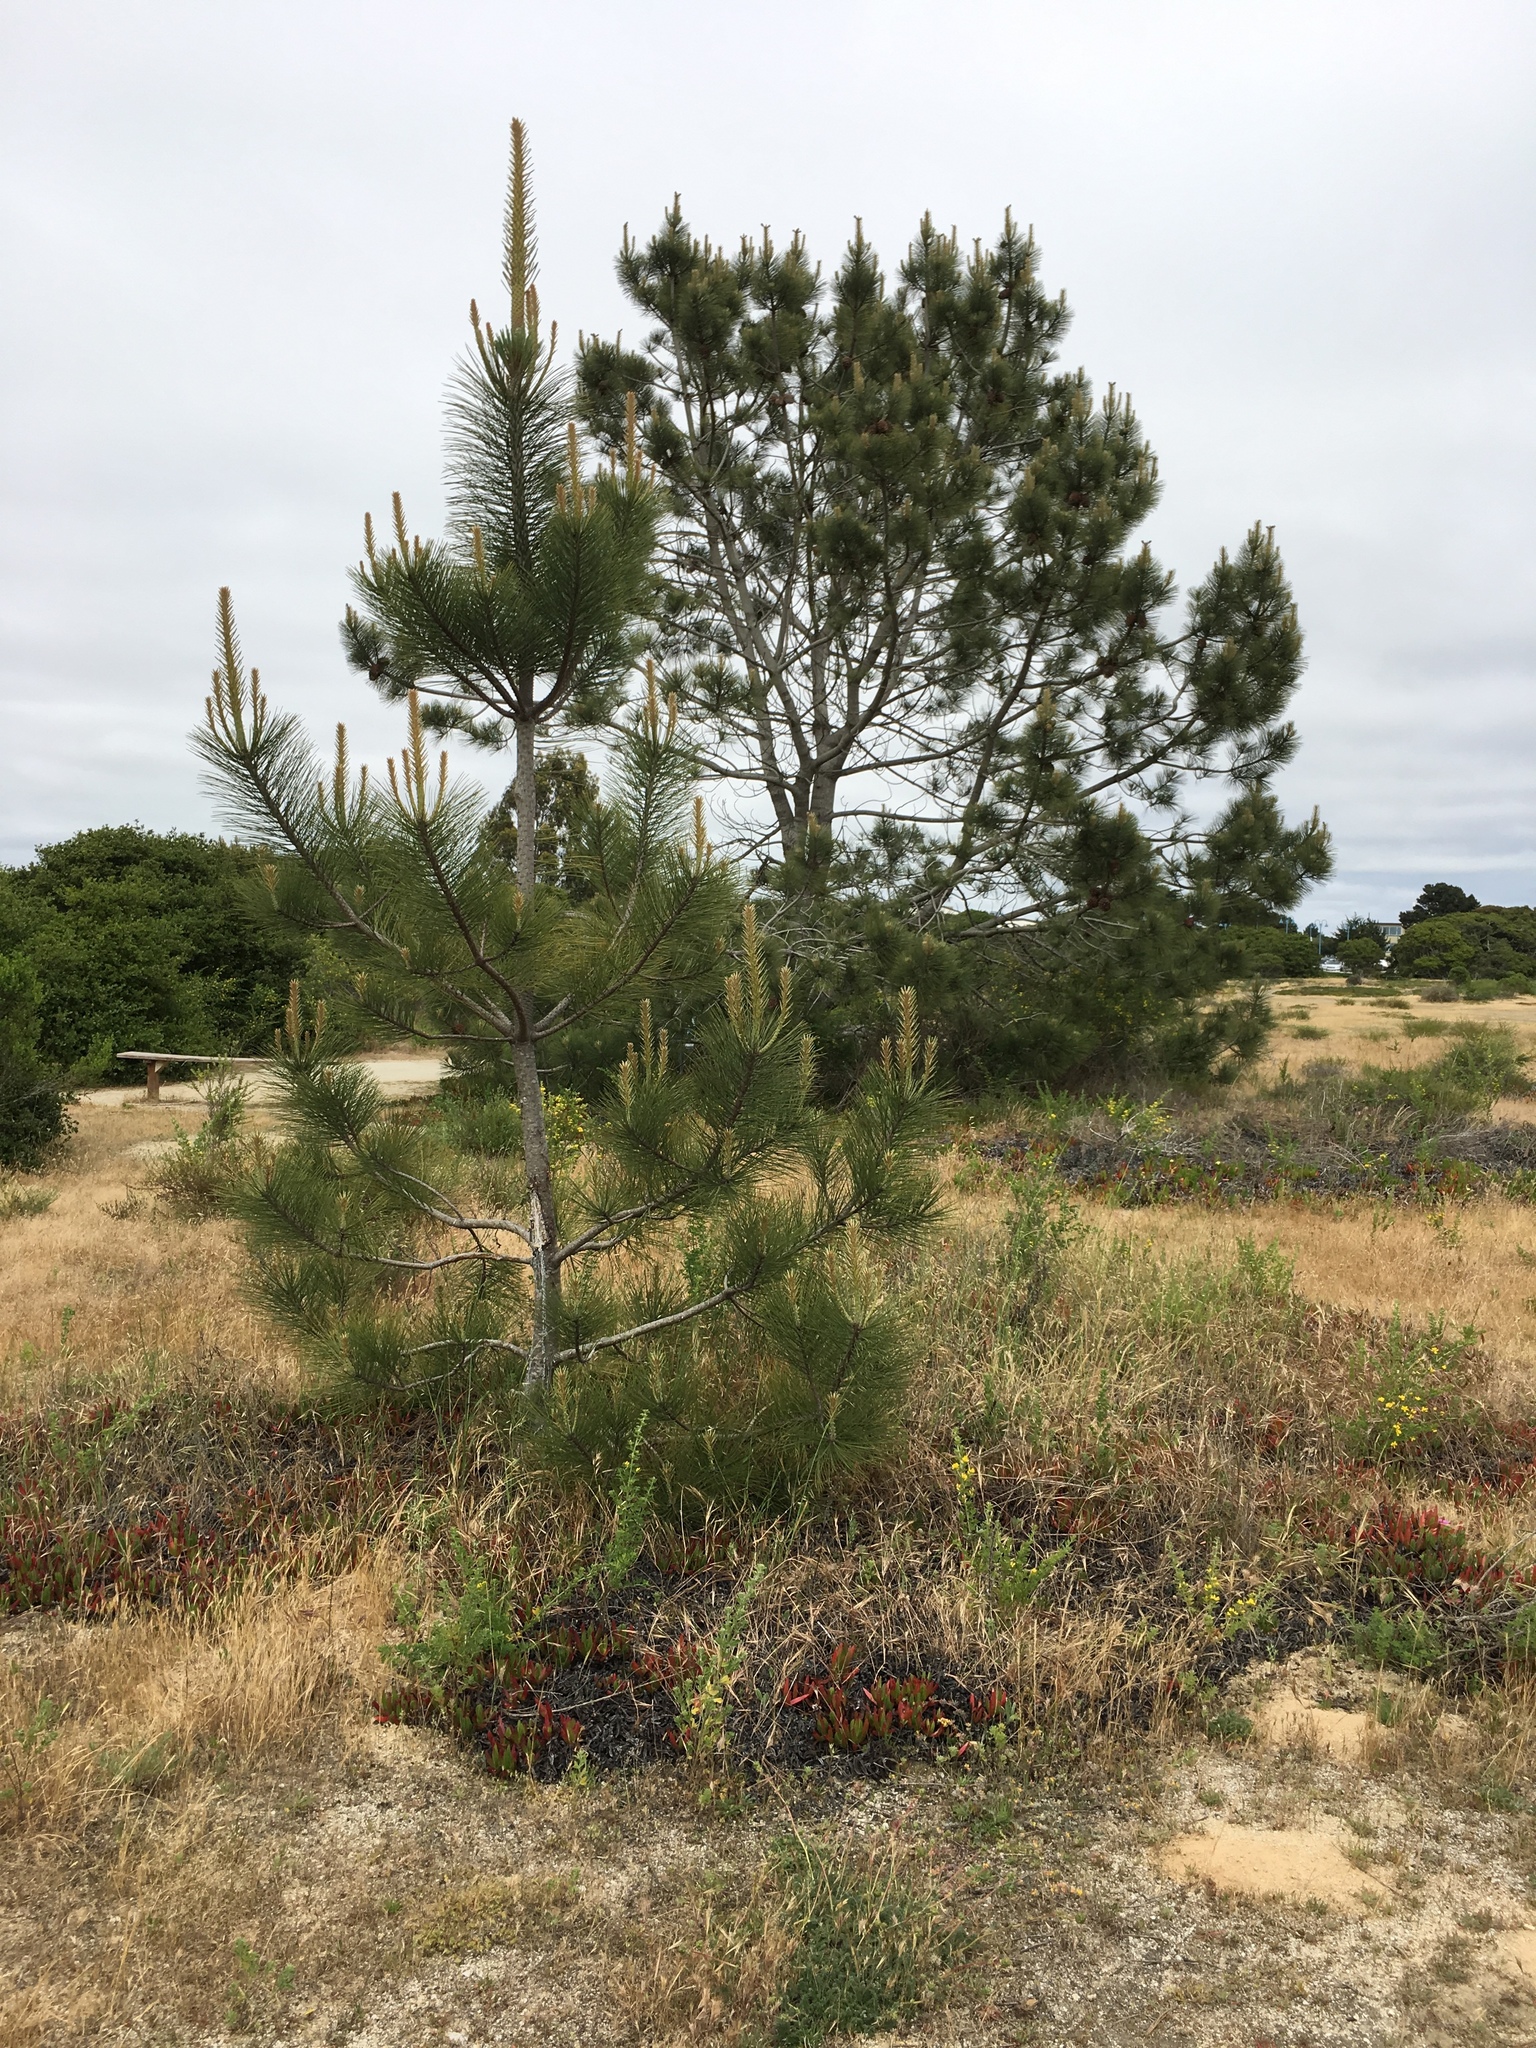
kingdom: Plantae
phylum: Tracheophyta
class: Pinopsida
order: Pinales
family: Pinaceae
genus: Pinus
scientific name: Pinus torreyana
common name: Torrey pine
